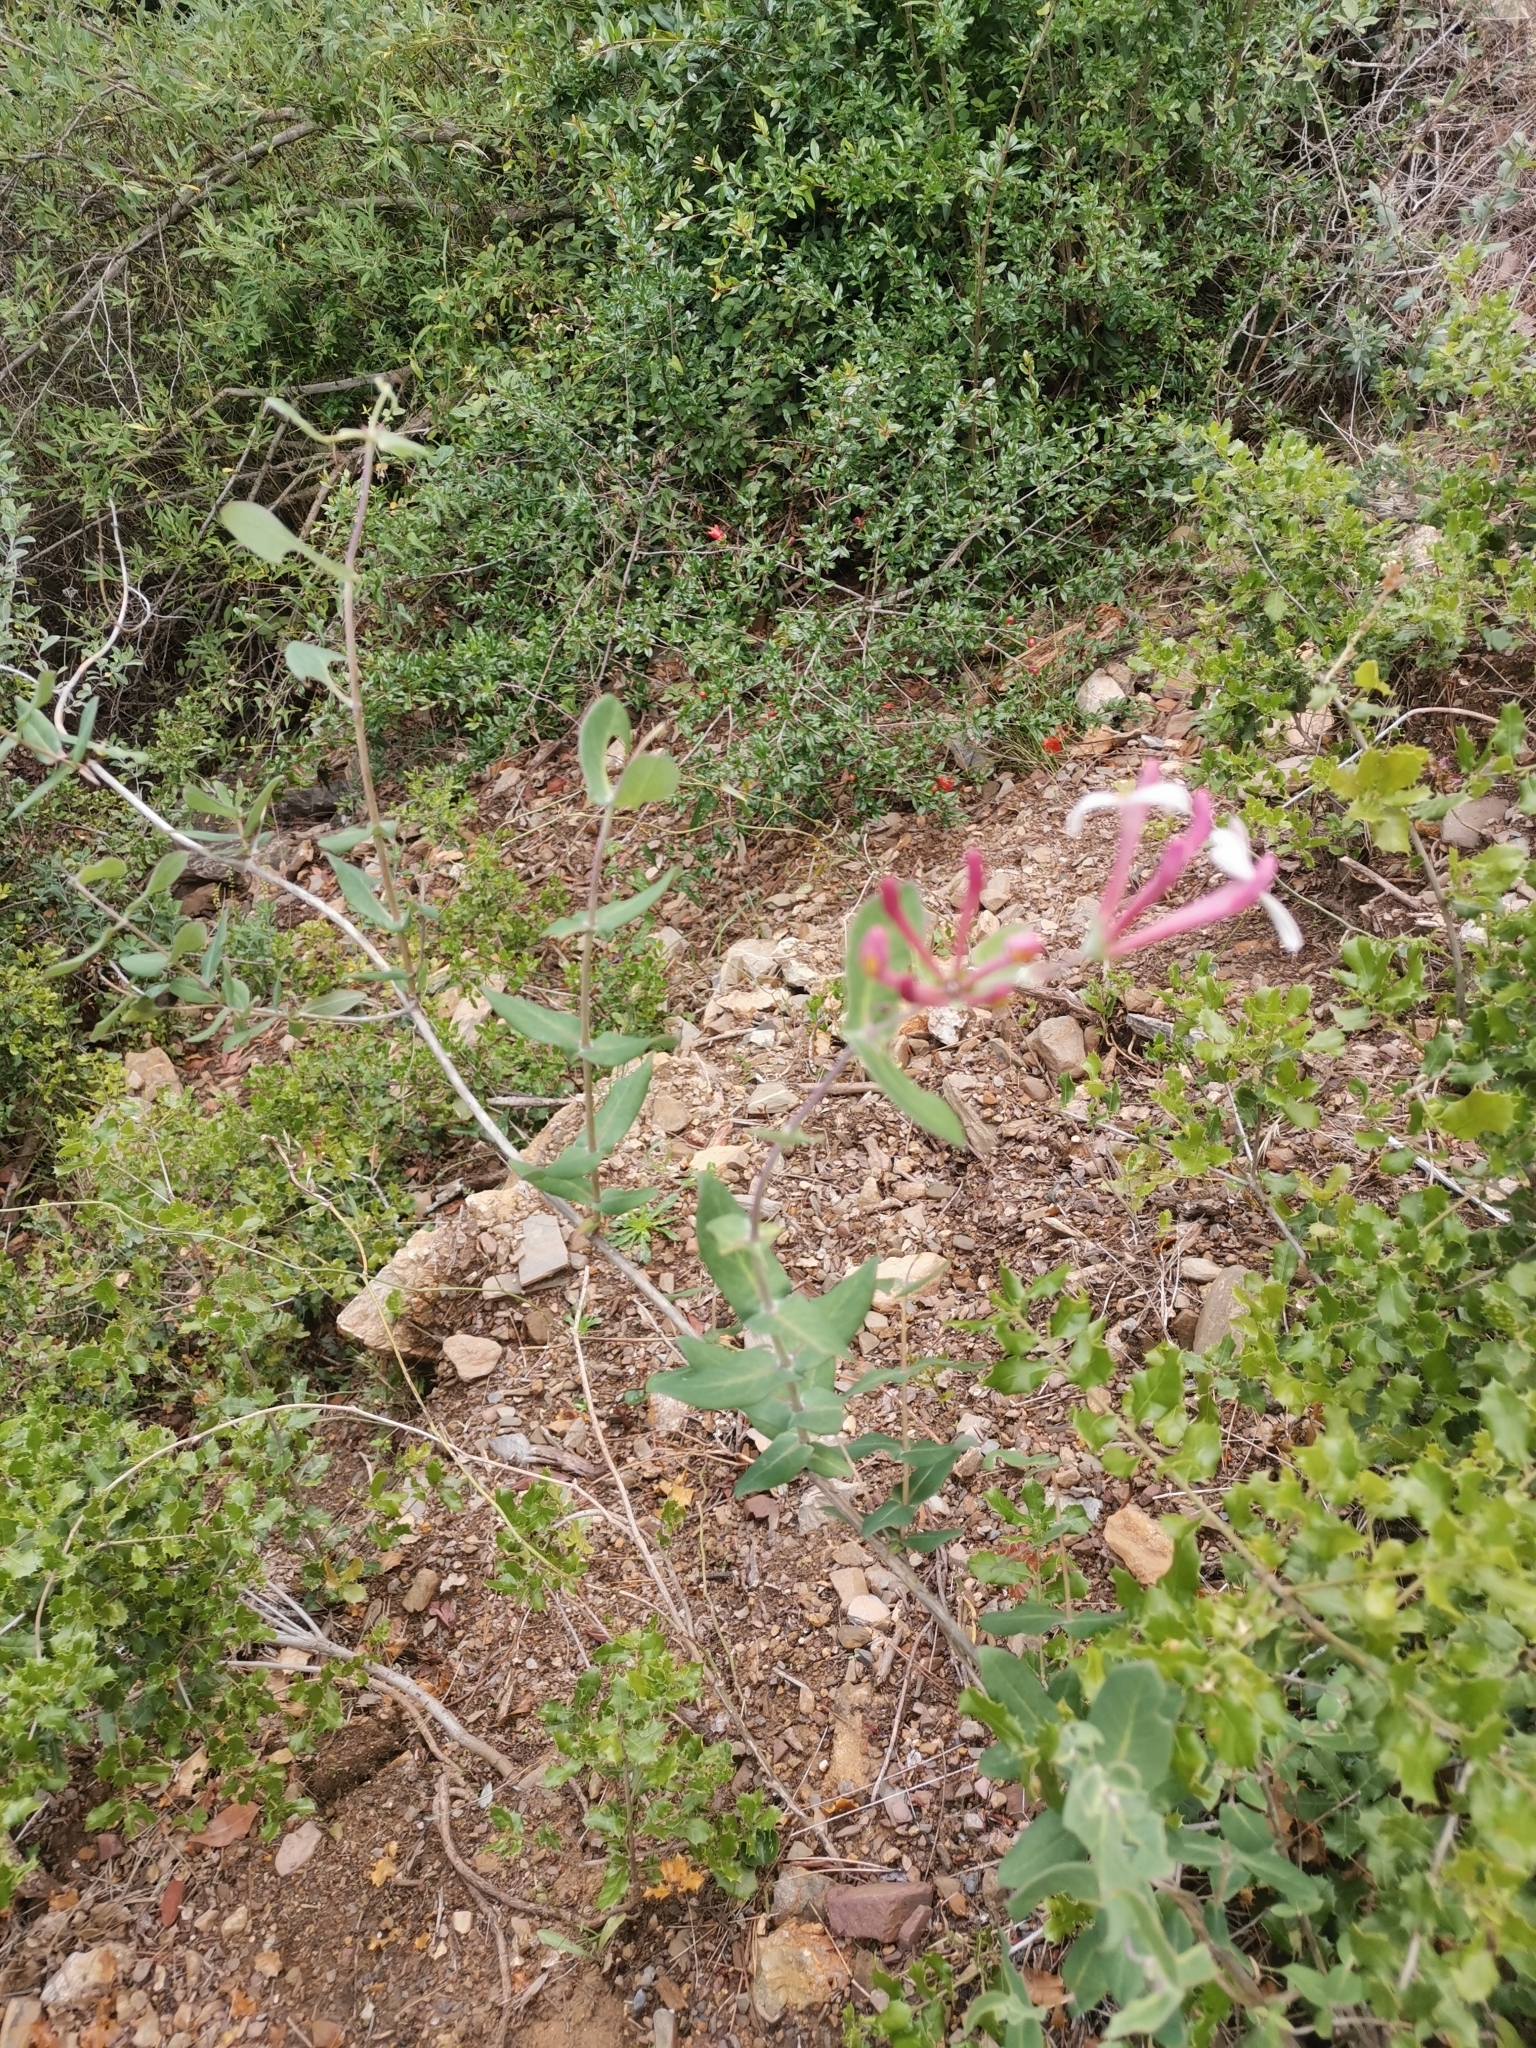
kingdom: Plantae
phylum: Tracheophyta
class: Magnoliopsida
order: Dipsacales
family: Caprifoliaceae
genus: Lonicera
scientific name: Lonicera implexa
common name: Minorca honeysuckle
